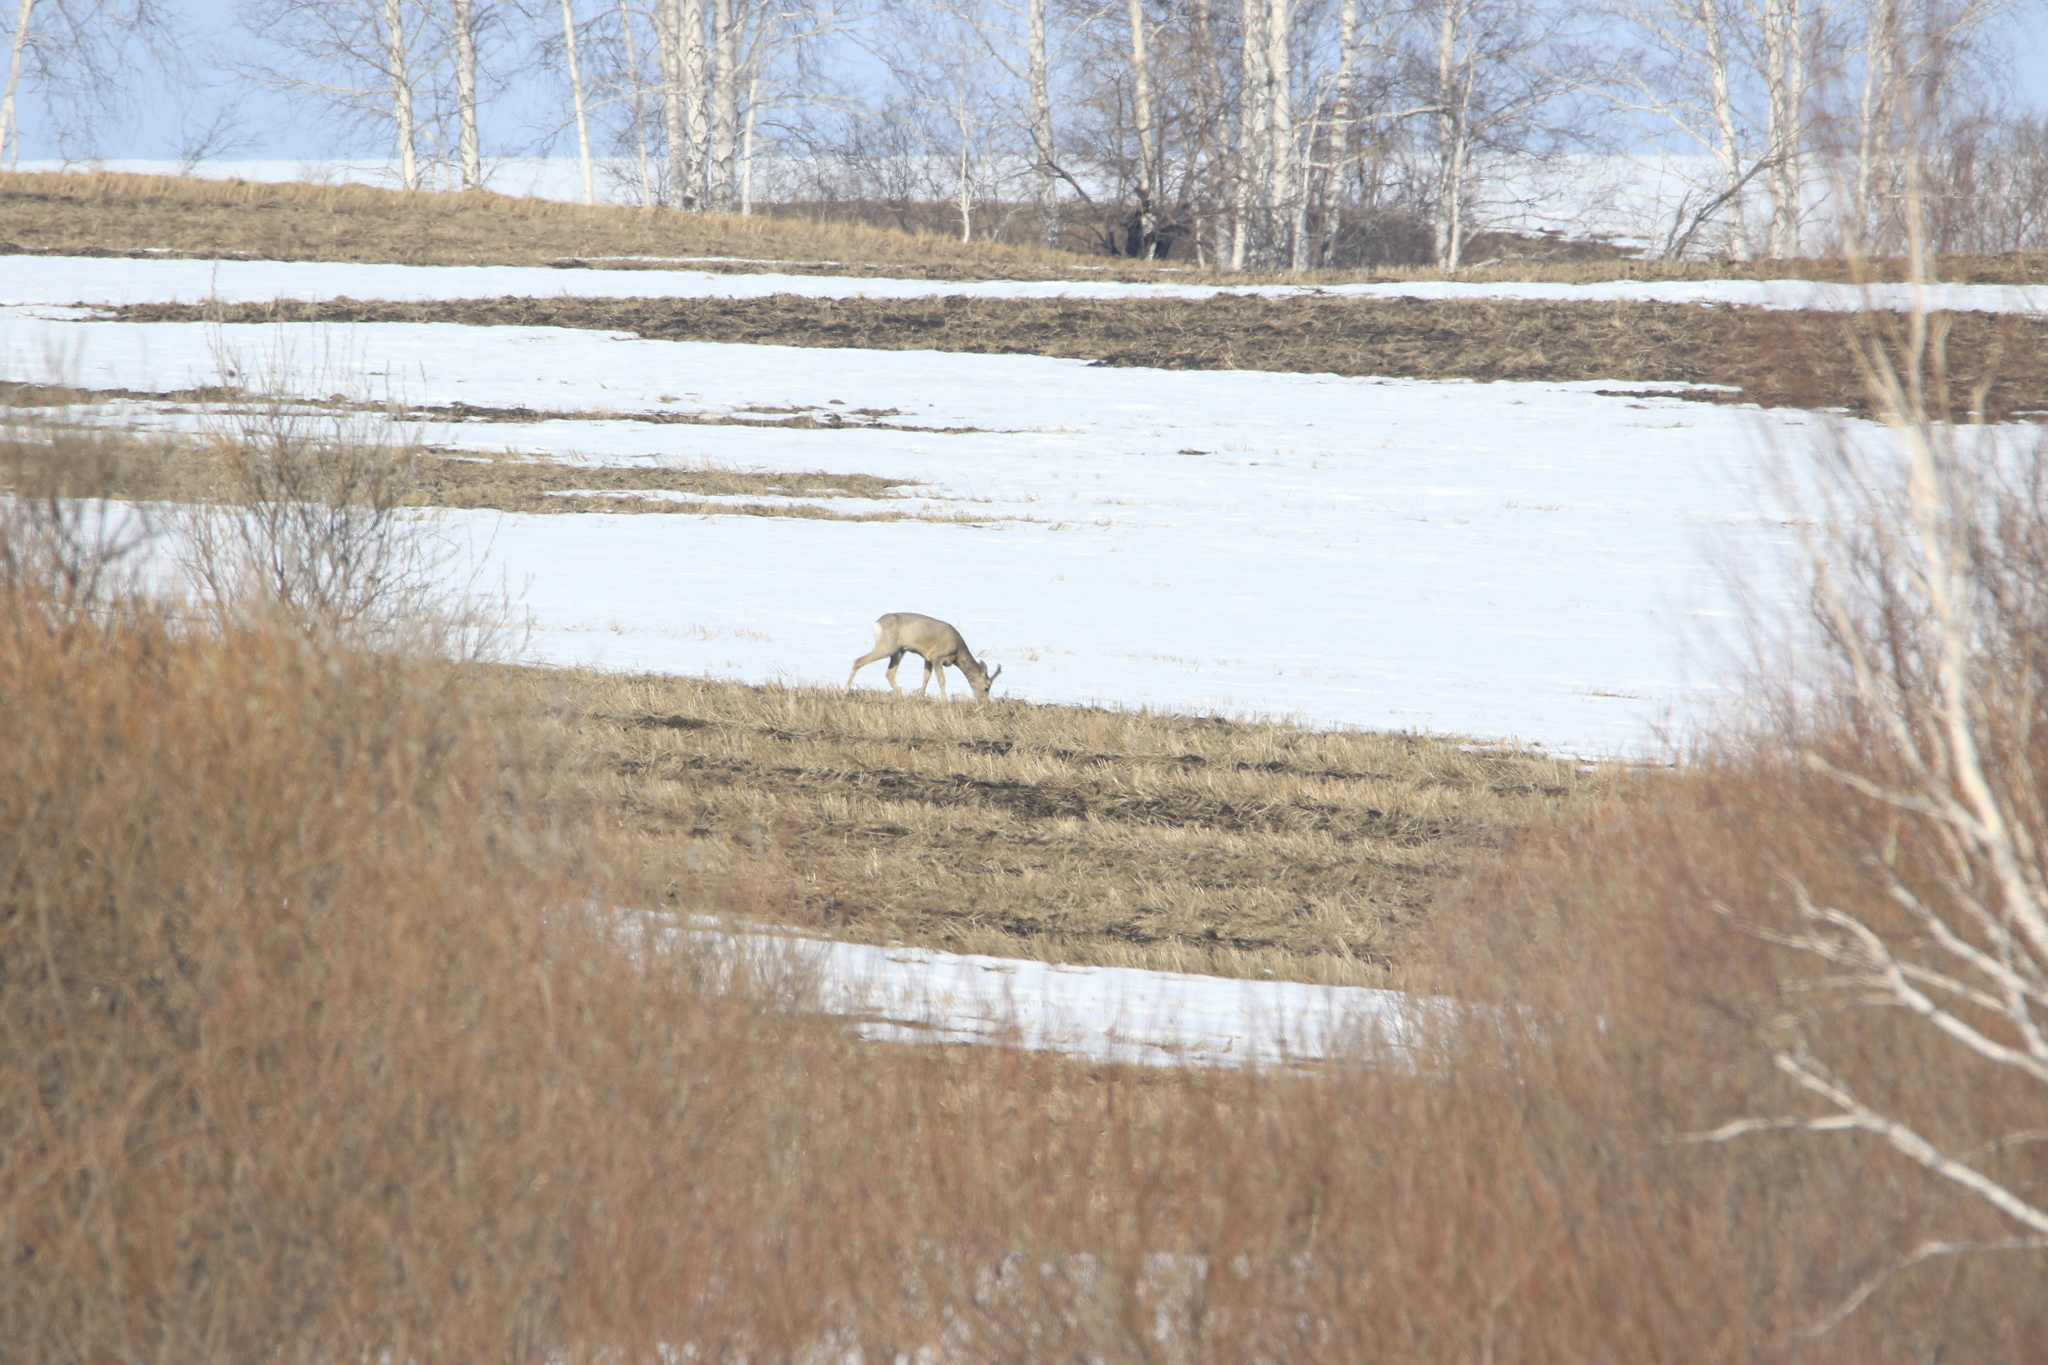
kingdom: Animalia
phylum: Chordata
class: Mammalia
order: Artiodactyla
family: Cervidae
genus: Capreolus
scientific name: Capreolus pygargus
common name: Siberian roe
